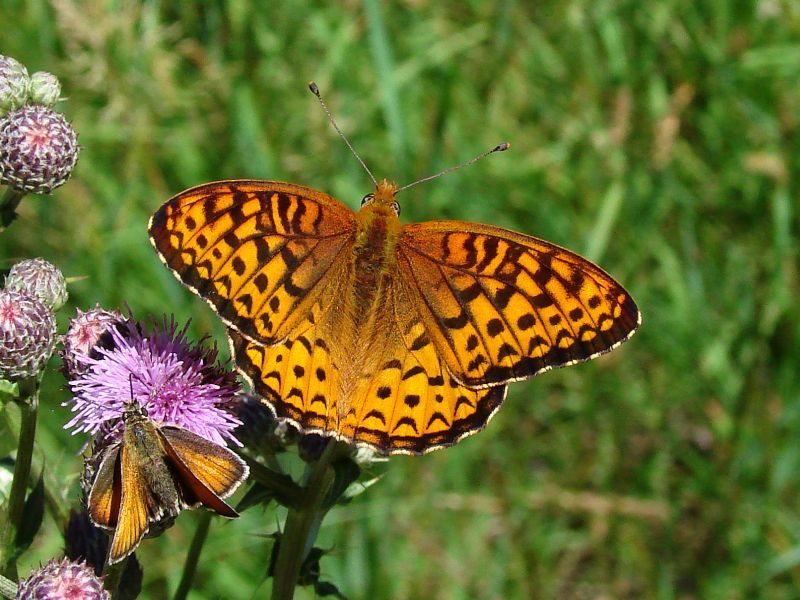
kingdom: Animalia
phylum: Arthropoda
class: Insecta
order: Lepidoptera
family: Nymphalidae
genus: Speyeria
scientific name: Speyeria atlantis
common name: Atlantis fritillary
